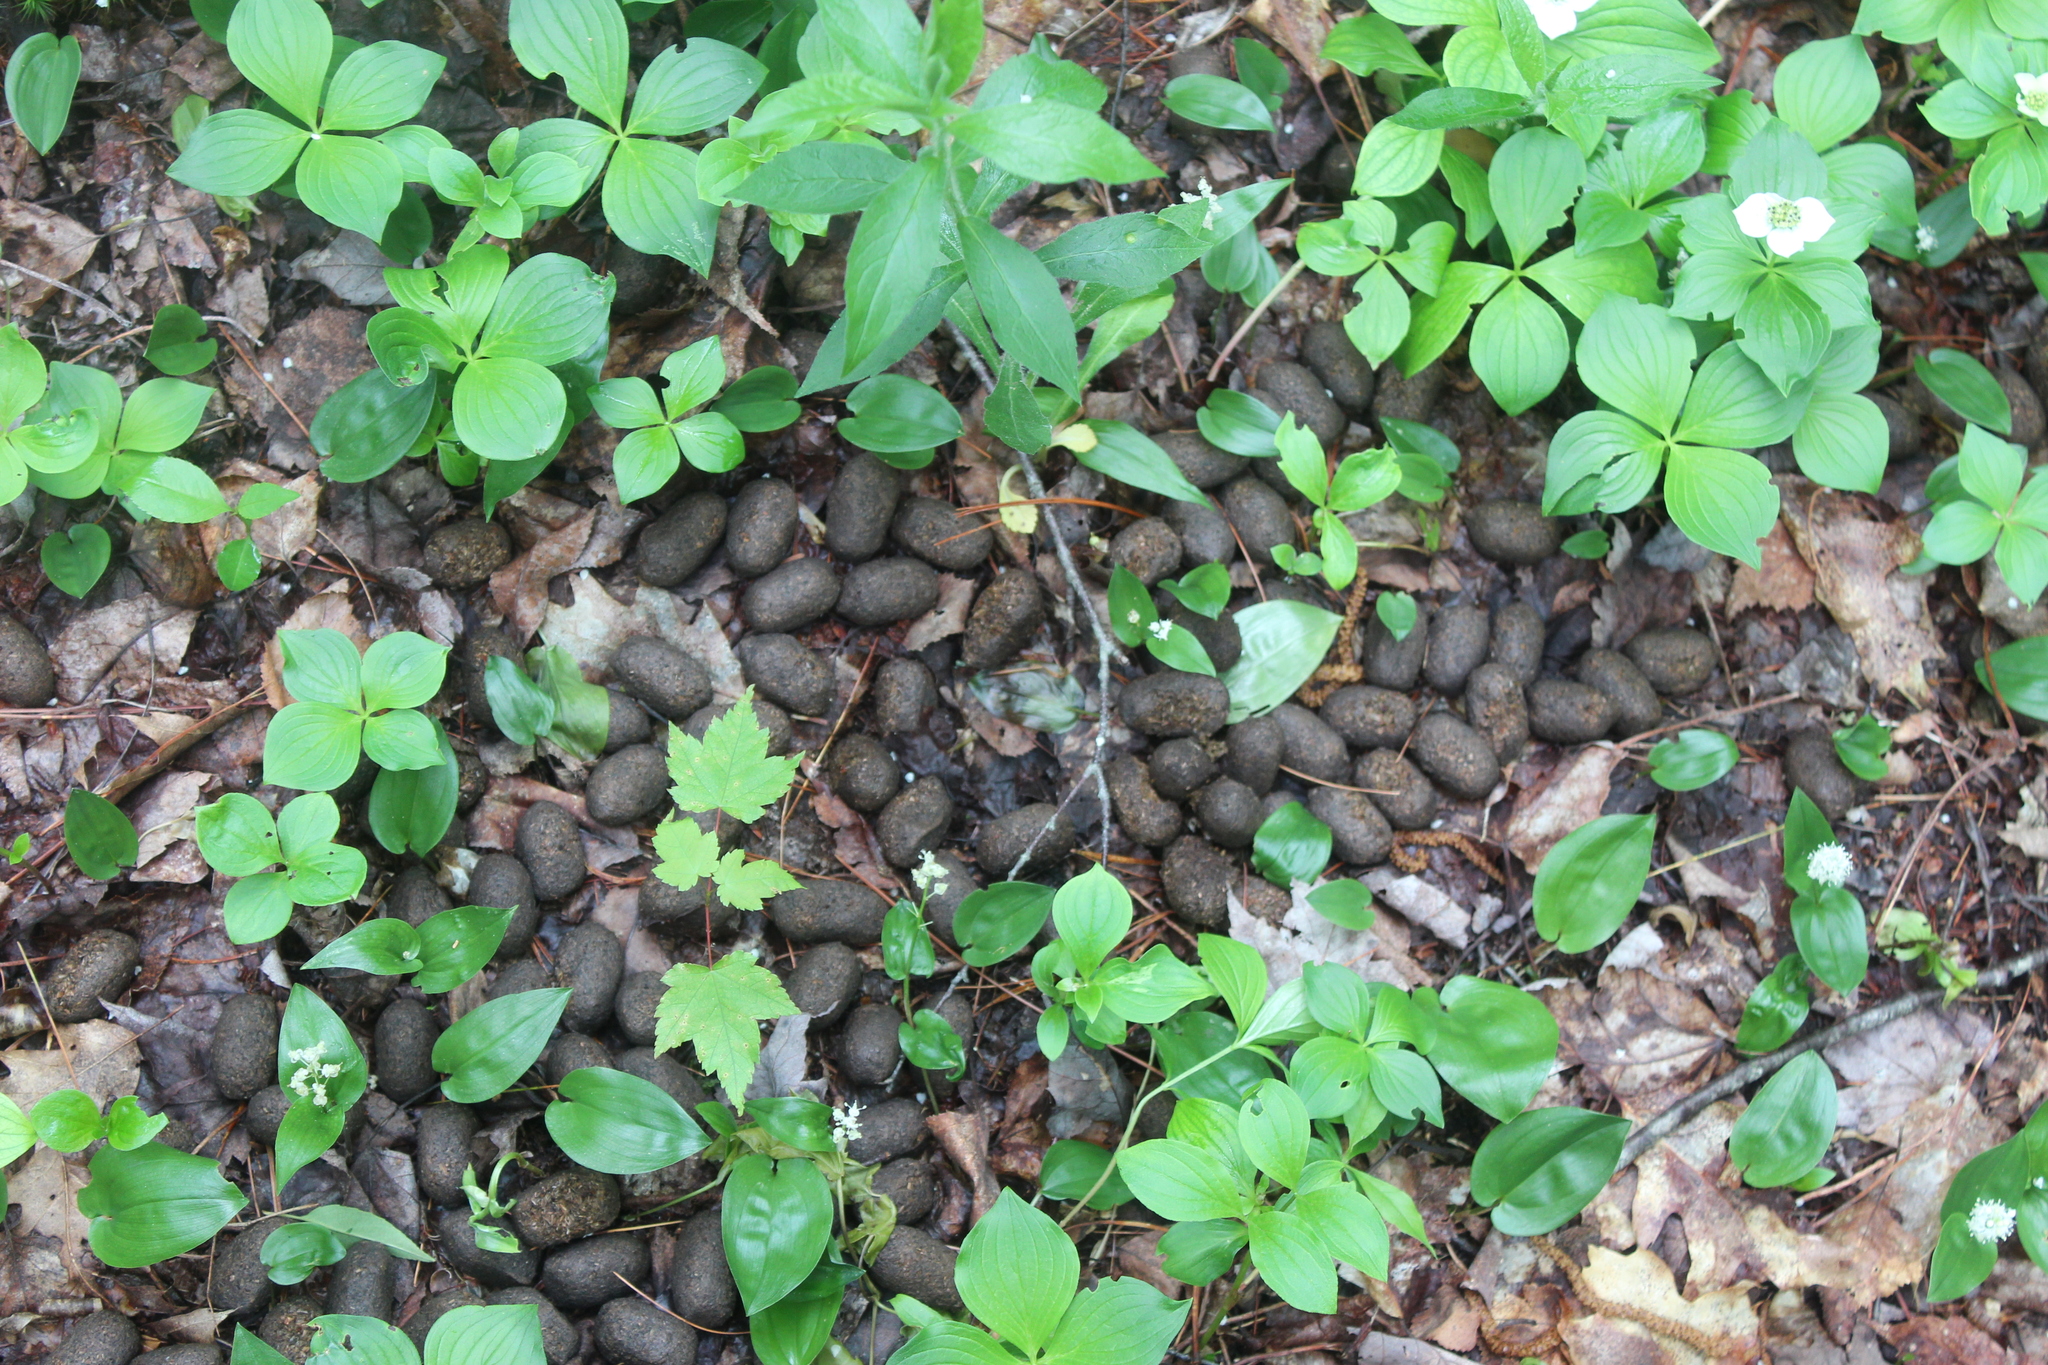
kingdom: Animalia
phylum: Chordata
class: Mammalia
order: Artiodactyla
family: Cervidae
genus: Alces
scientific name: Alces alces
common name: Moose
